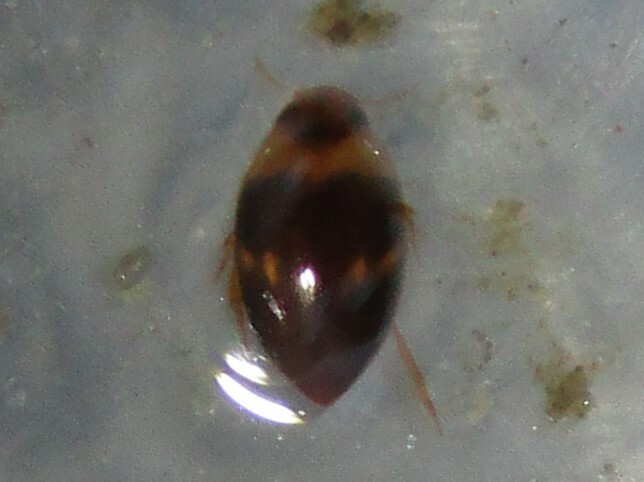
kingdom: Animalia
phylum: Arthropoda
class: Insecta
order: Coleoptera
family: Noteridae
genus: Suphisellus
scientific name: Suphisellus puncticollis
